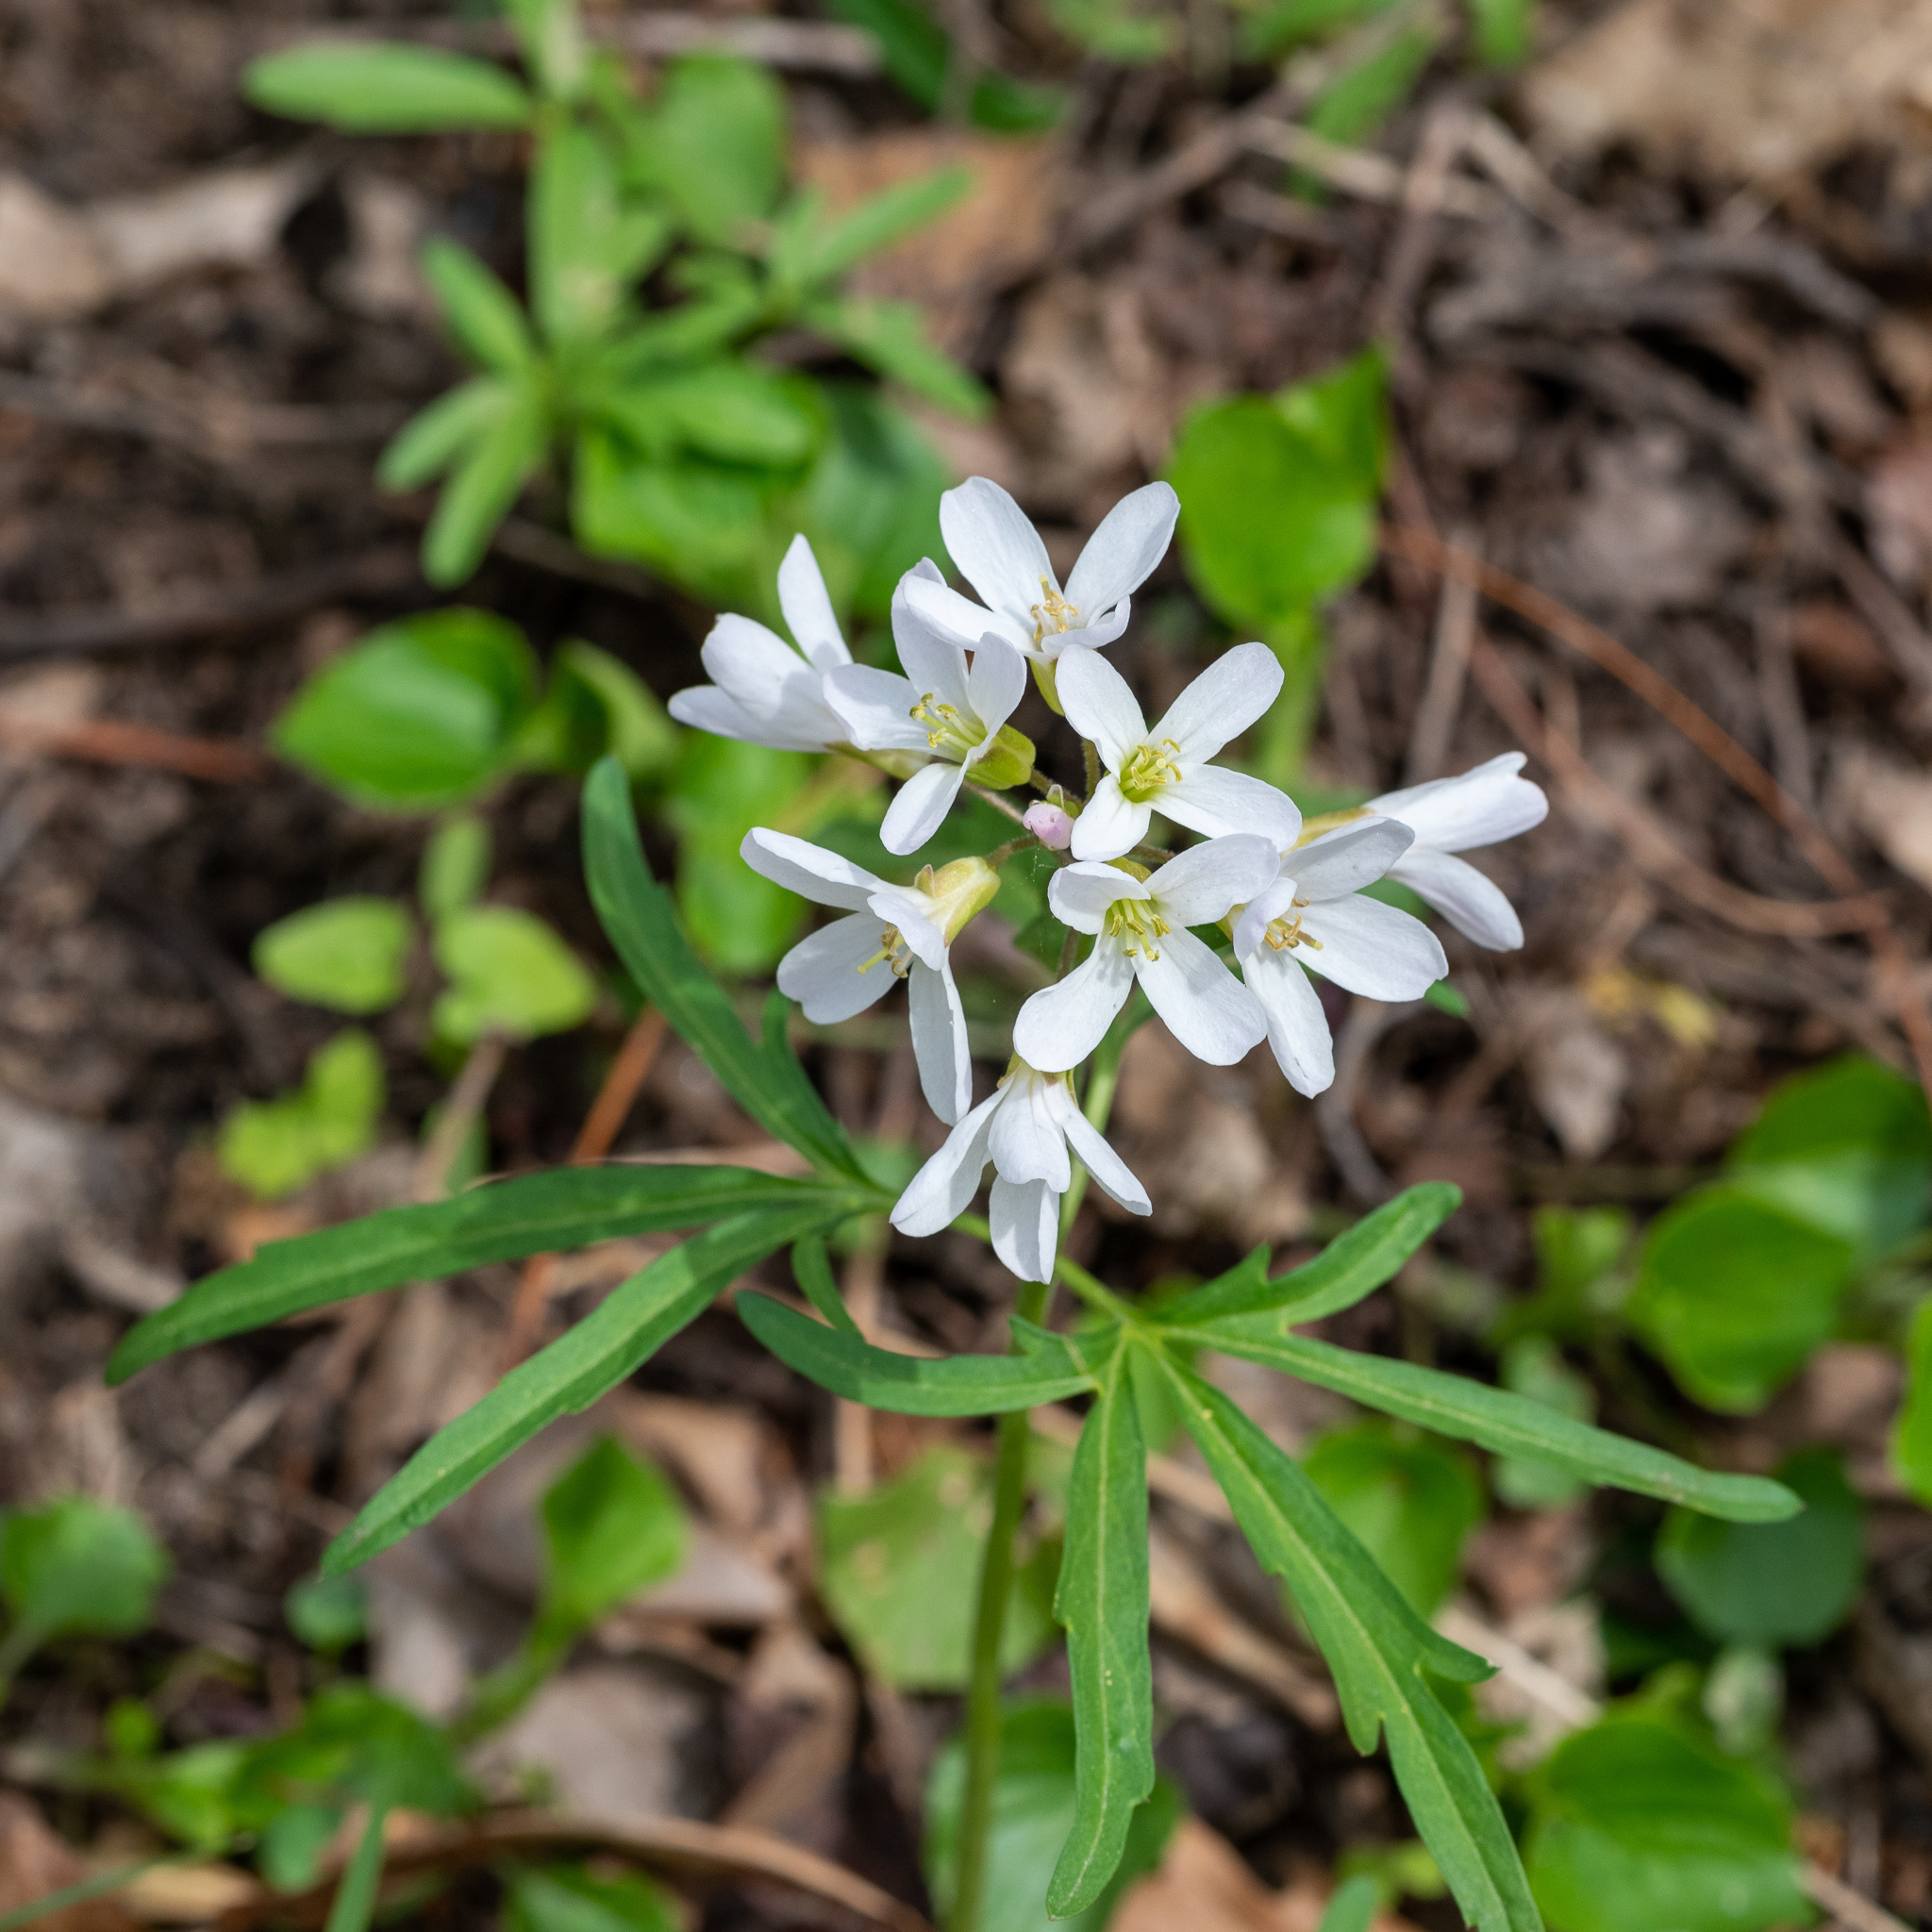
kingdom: Plantae
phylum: Tracheophyta
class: Magnoliopsida
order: Brassicales
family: Brassicaceae
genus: Cardamine
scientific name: Cardamine concatenata
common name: Cut-leaf toothcup
